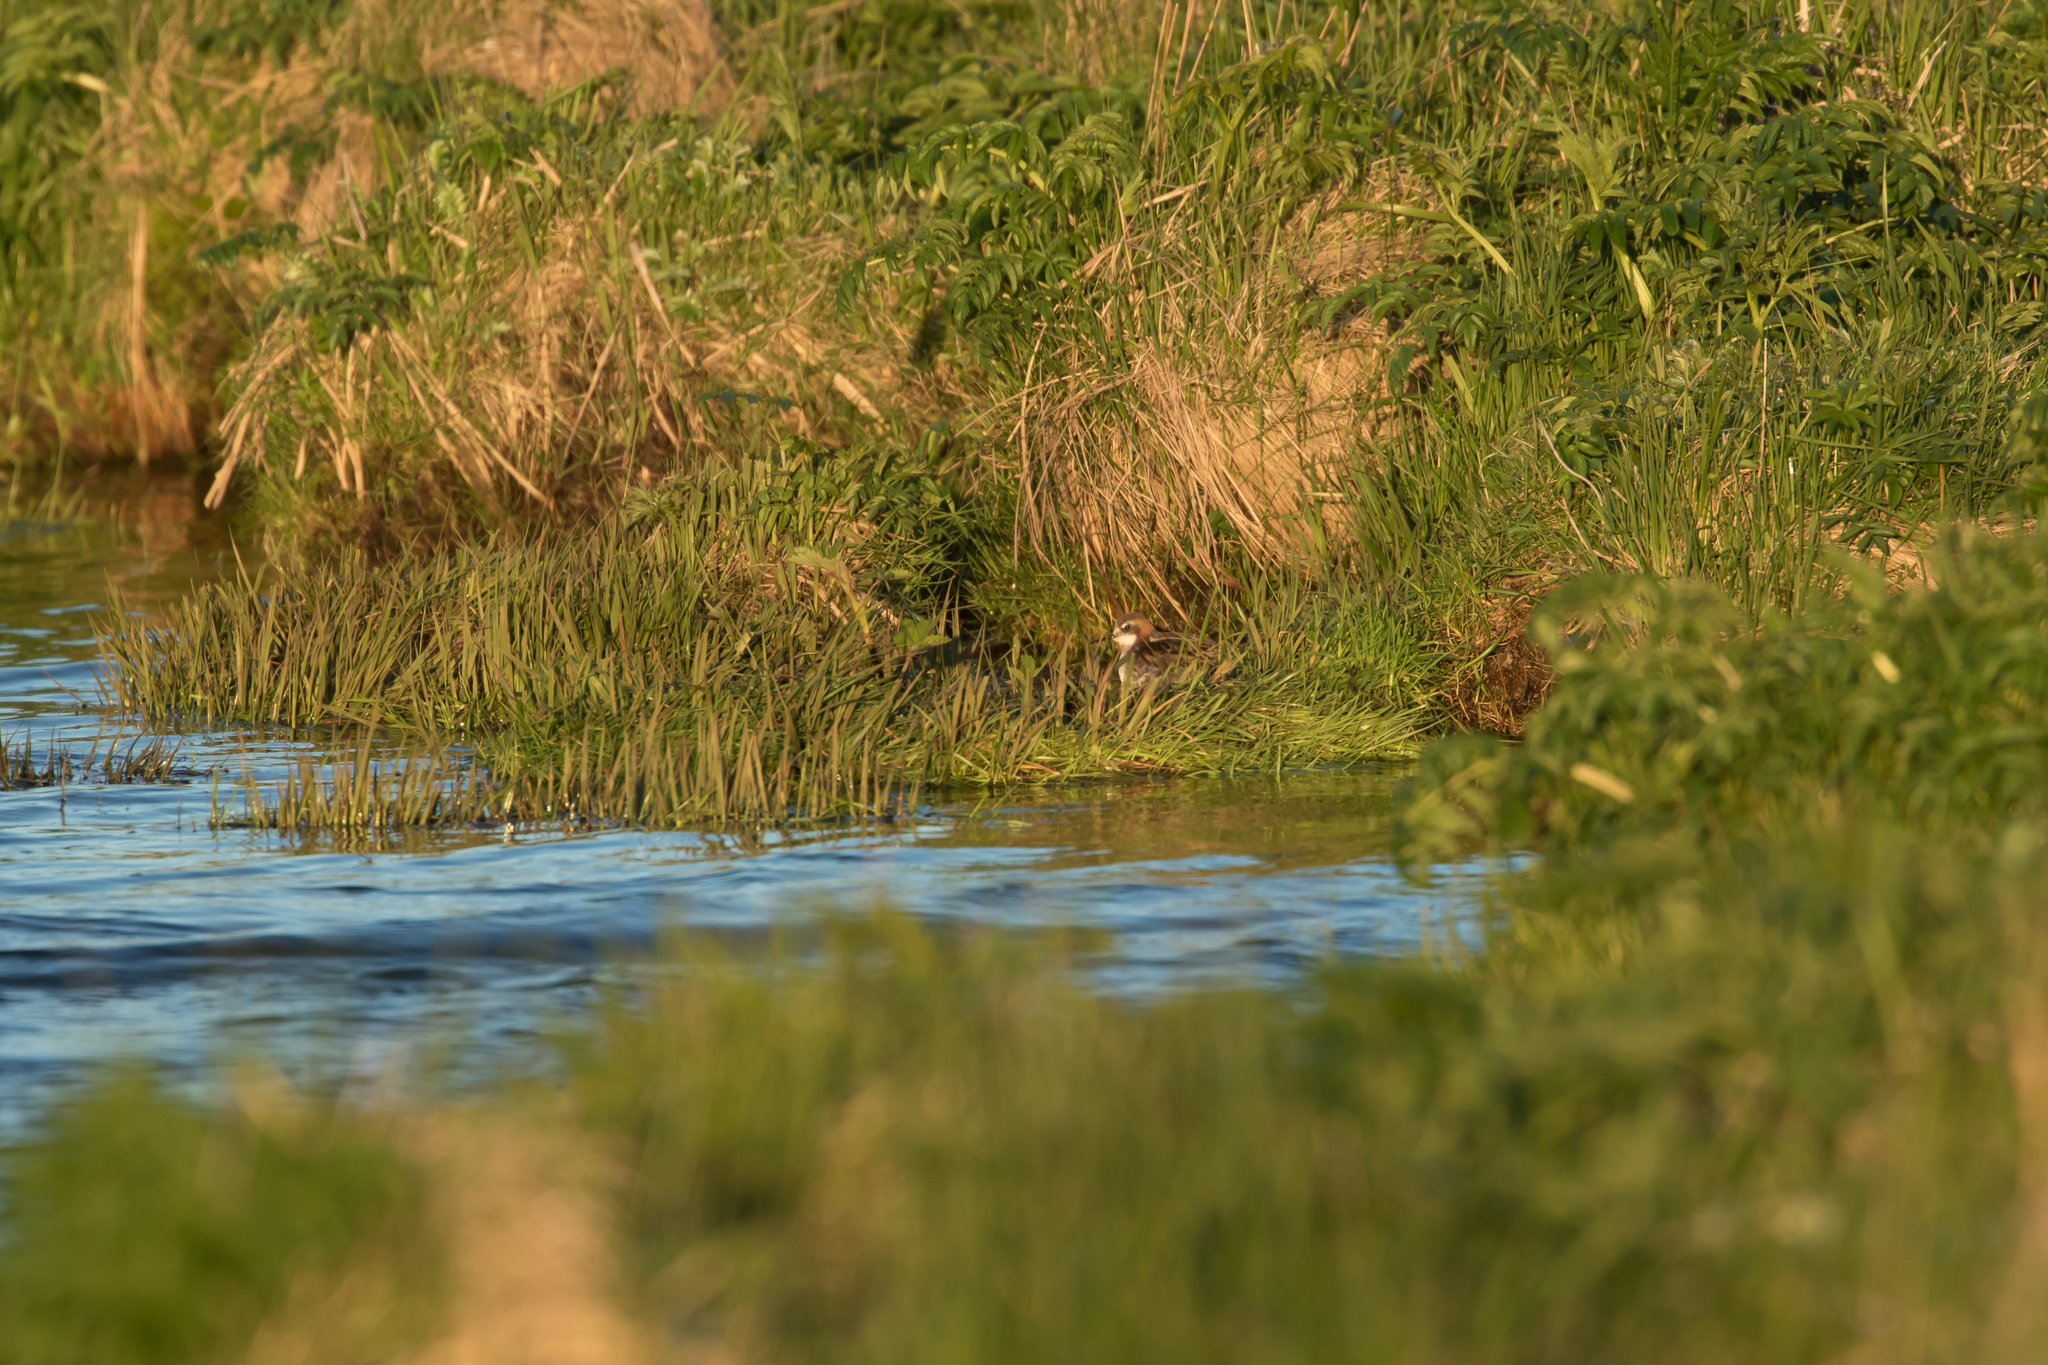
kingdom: Animalia
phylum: Chordata
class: Aves
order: Charadriiformes
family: Scolopacidae
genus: Phalaropus
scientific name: Phalaropus lobatus
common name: Red-necked phalarope
